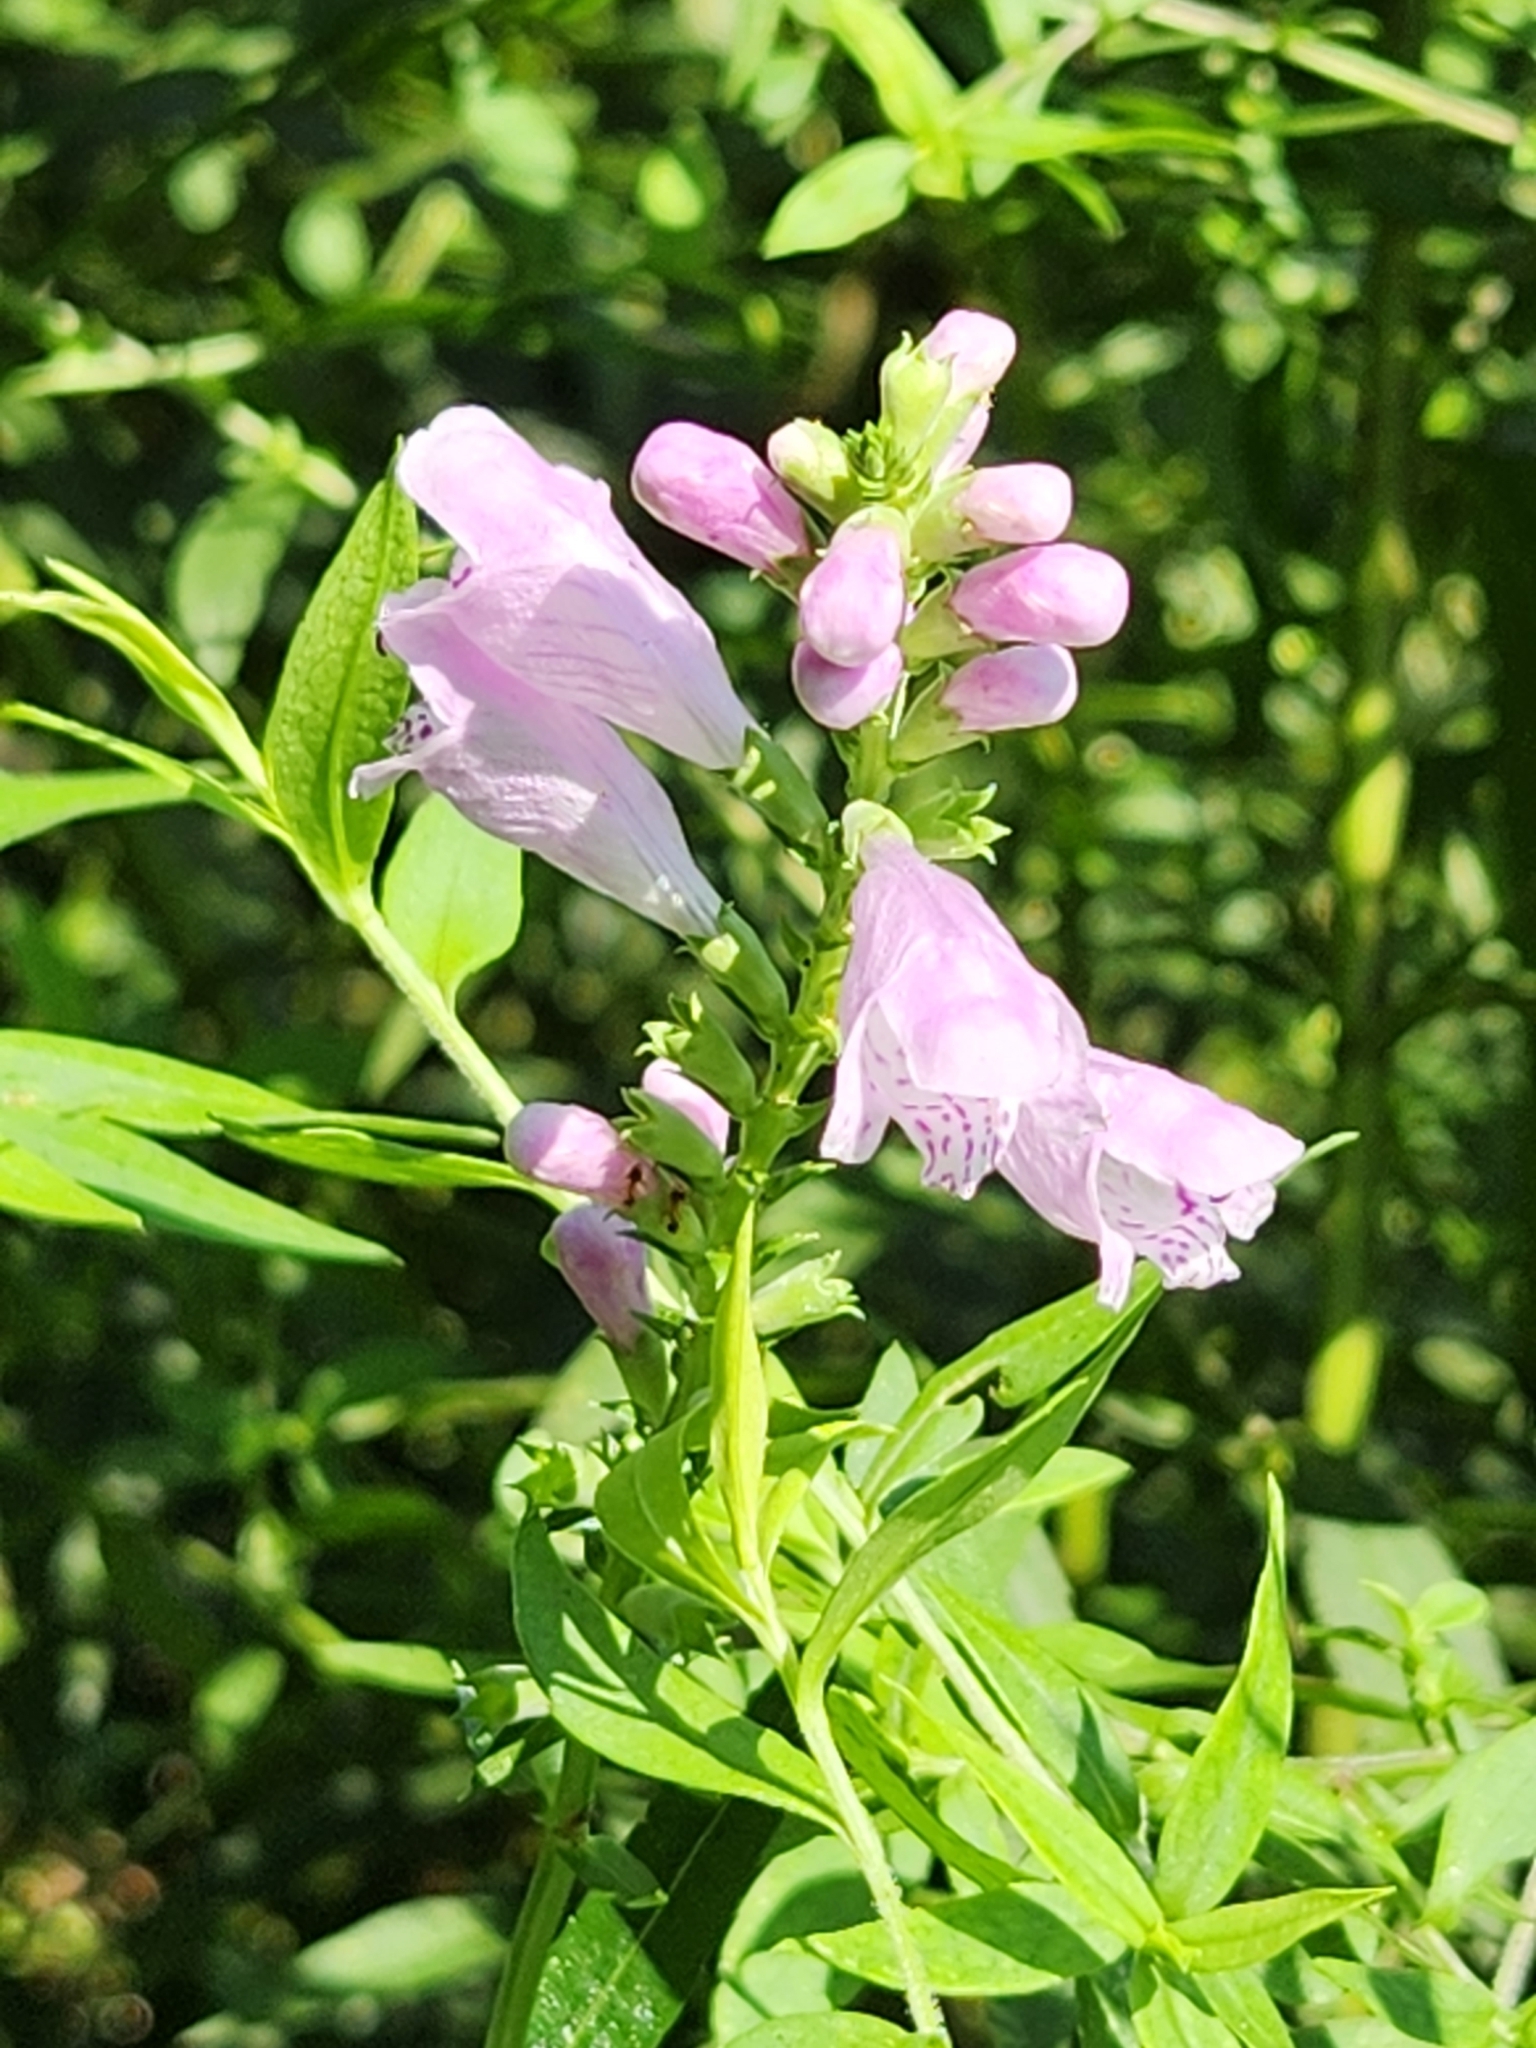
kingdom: Plantae
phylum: Tracheophyta
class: Magnoliopsida
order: Lamiales
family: Lamiaceae
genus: Physostegia
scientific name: Physostegia virginiana
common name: Obedient-plant
